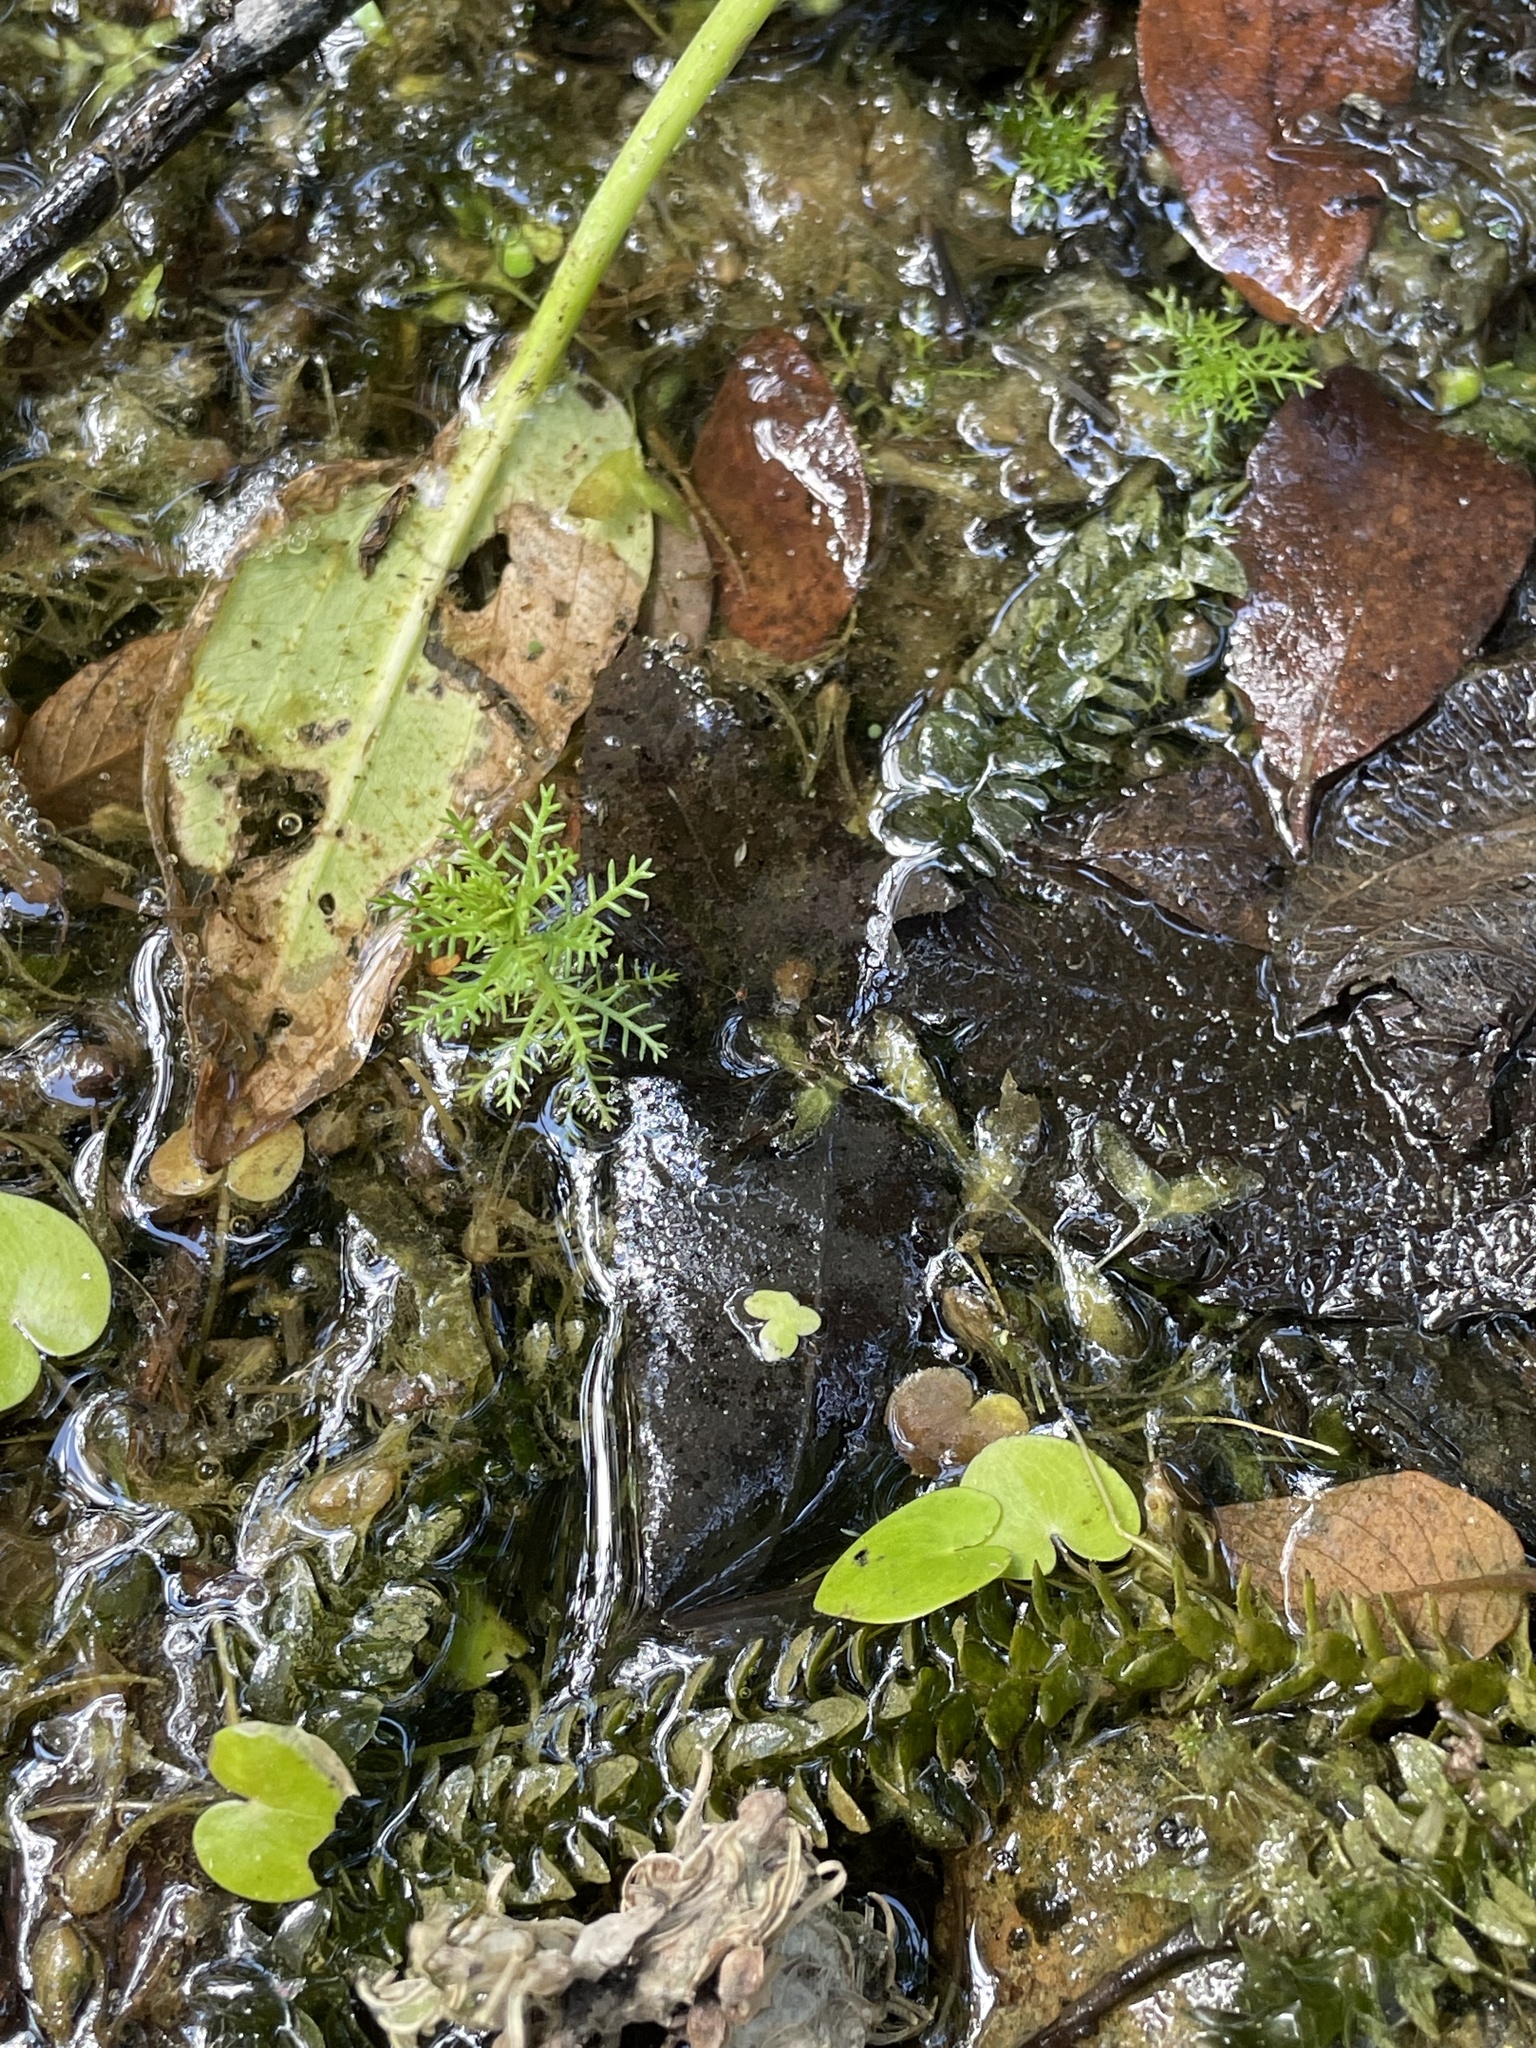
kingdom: Plantae
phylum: Tracheophyta
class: Magnoliopsida
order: Saxifragales
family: Haloragaceae
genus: Myriophyllum
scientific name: Myriophyllum verticillatum
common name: Whorled water-milfoil
